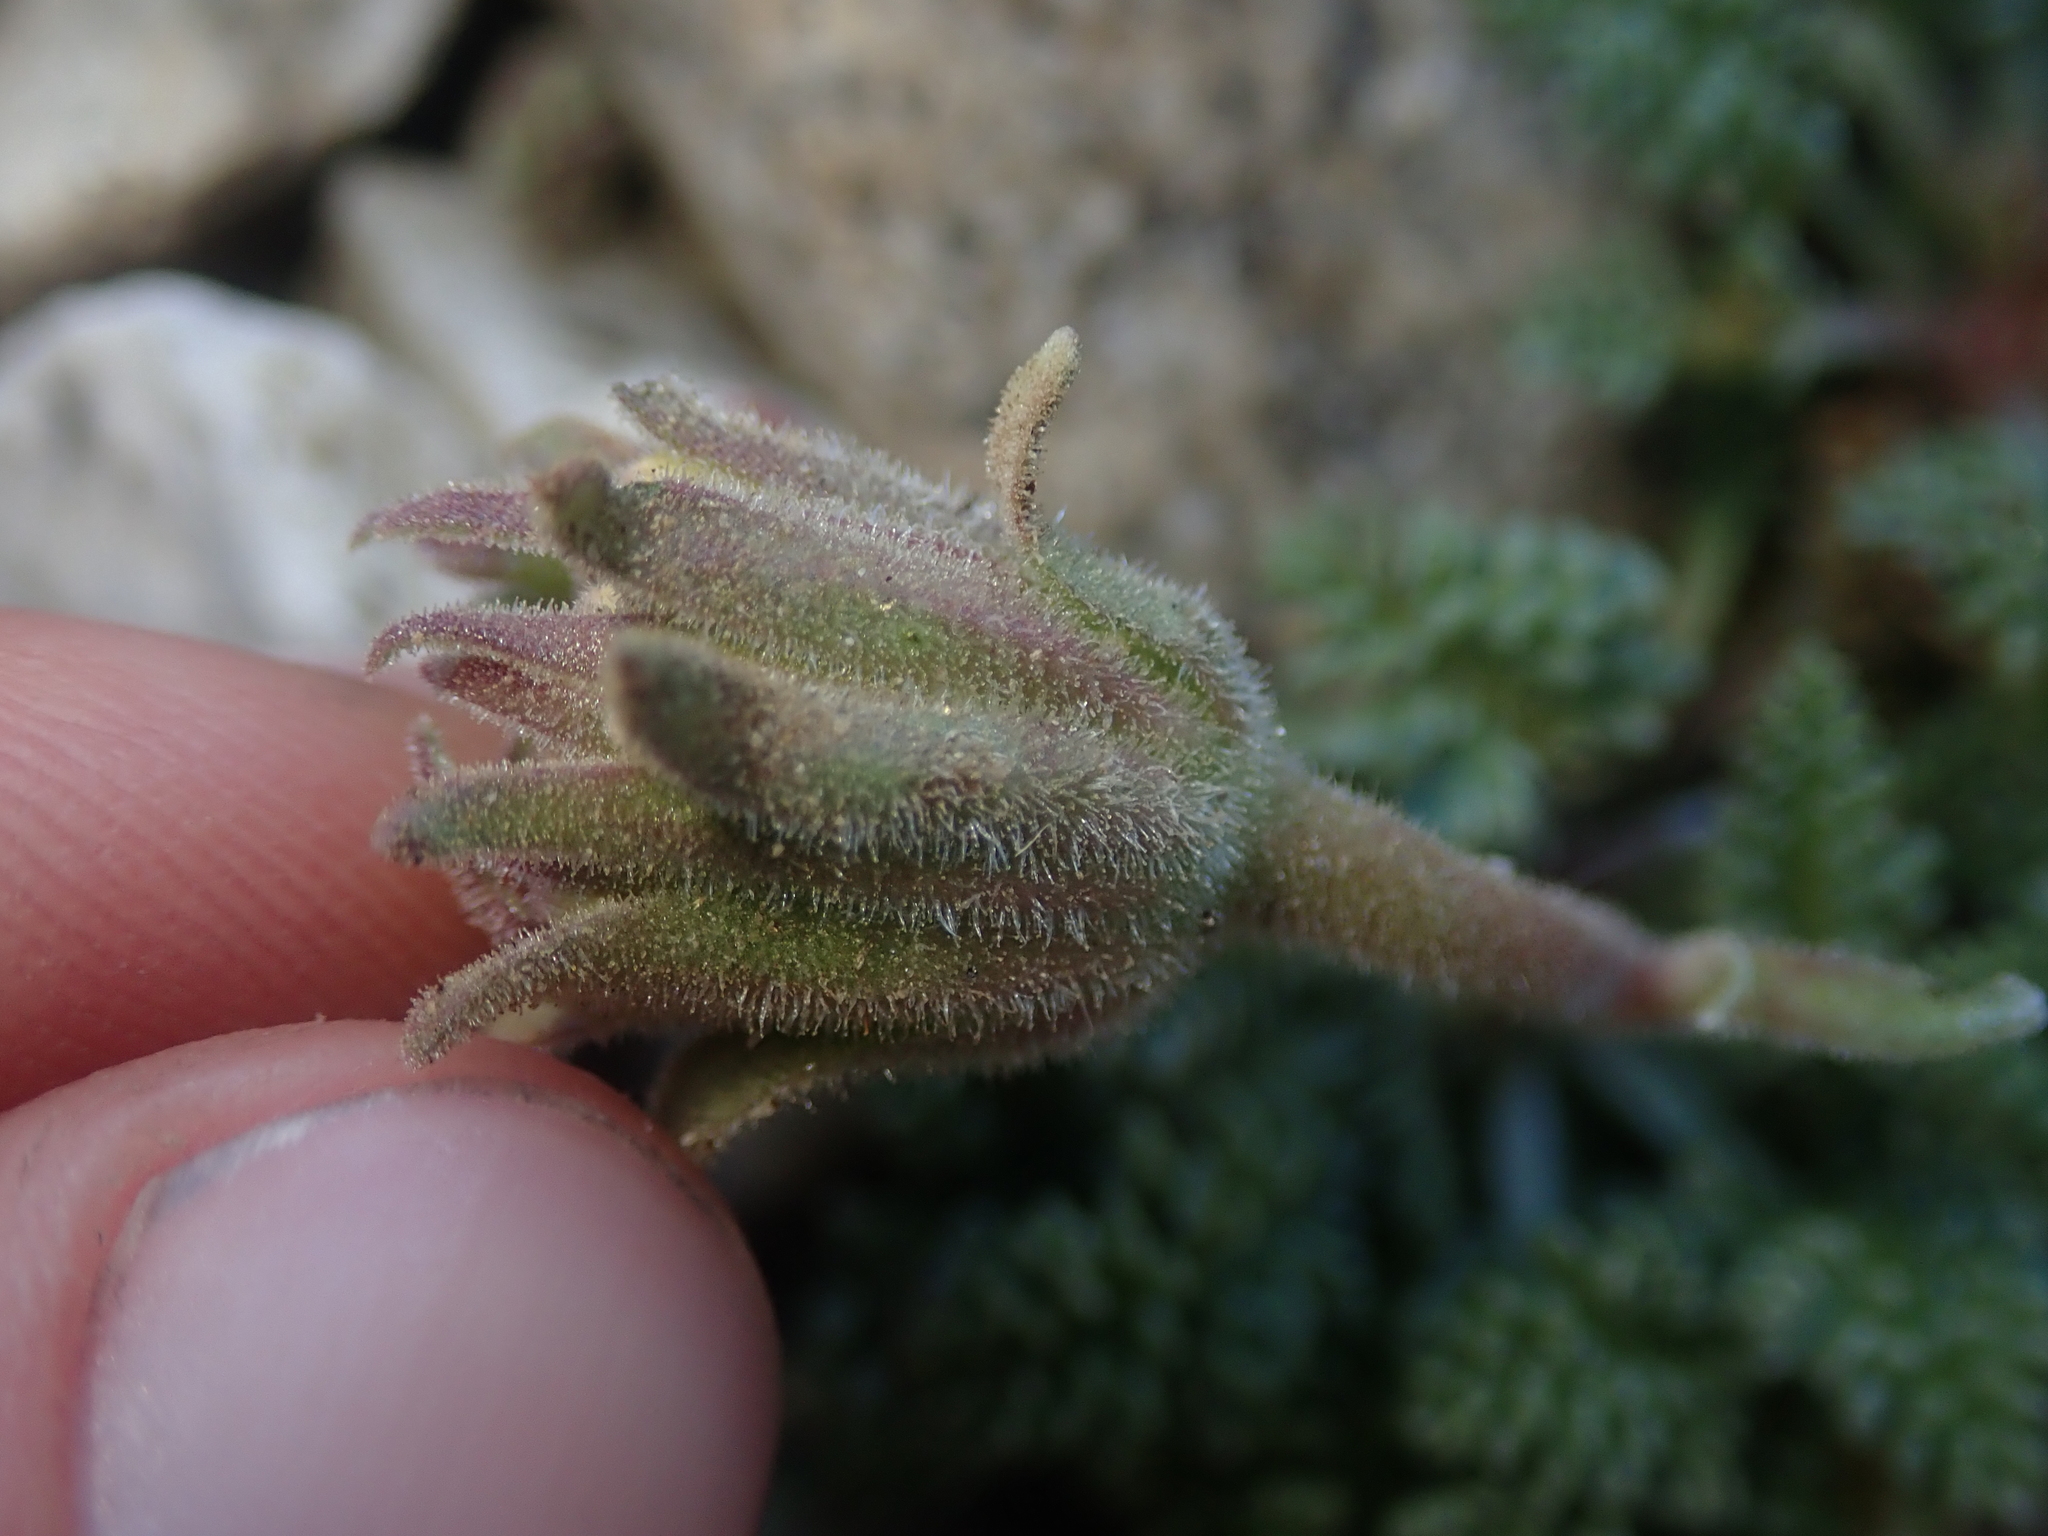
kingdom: Plantae
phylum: Tracheophyta
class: Magnoliopsida
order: Asterales
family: Asteraceae
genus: Chaenactis
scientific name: Chaenactis douglasii
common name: Hoary pincushion
